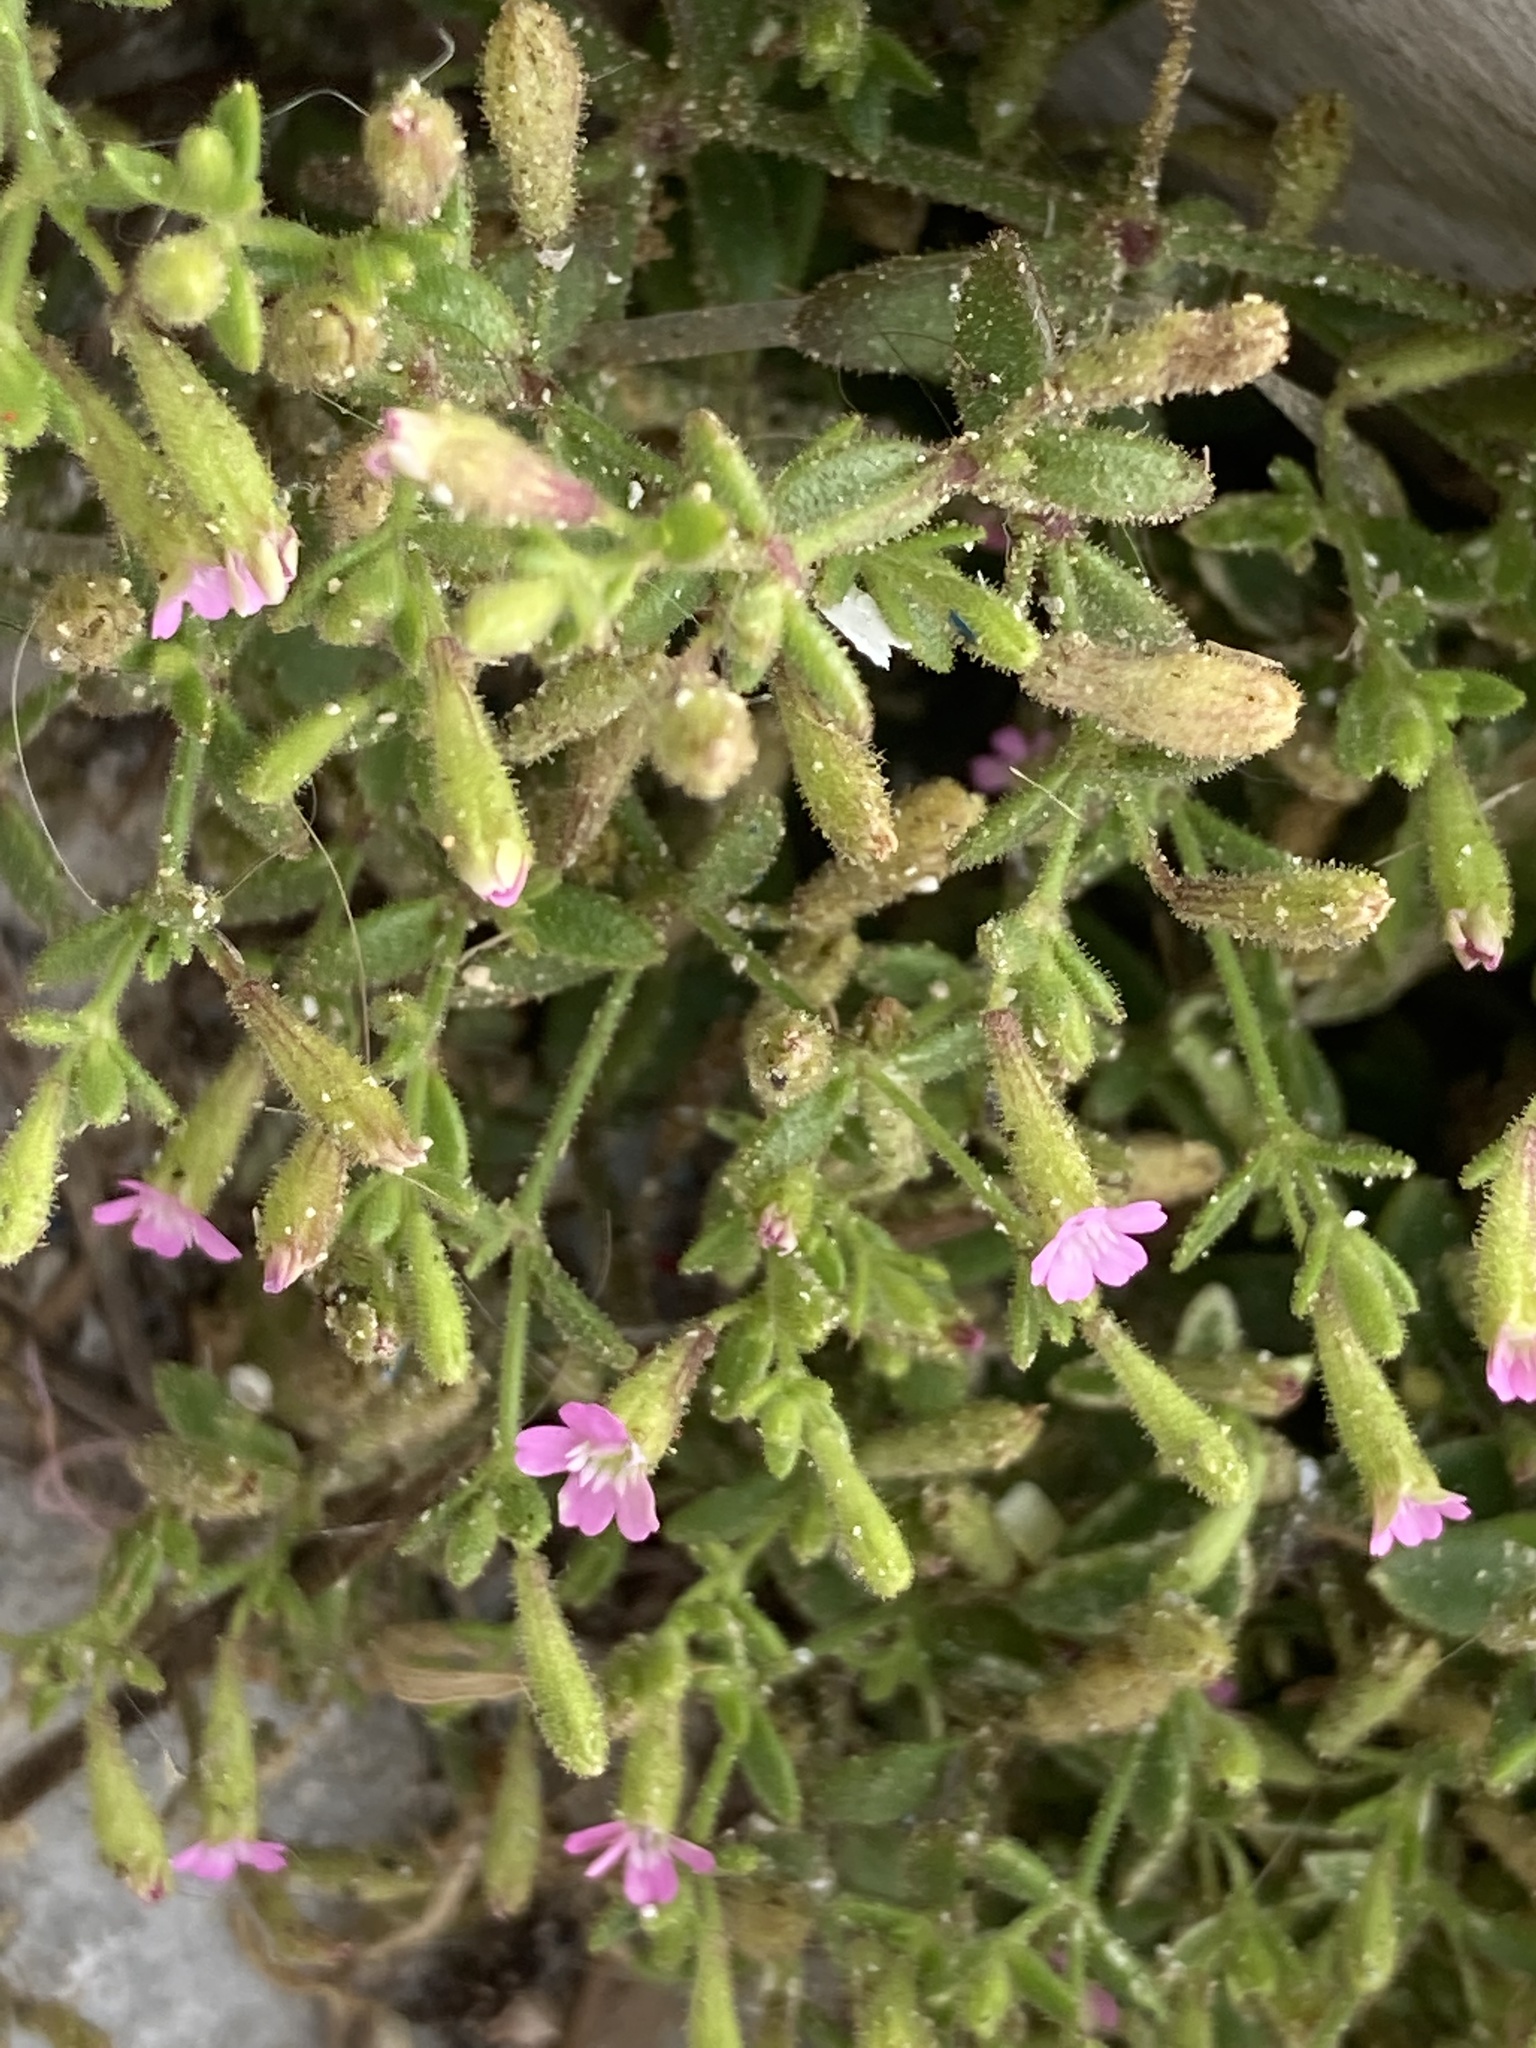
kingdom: Plantae
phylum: Tracheophyta
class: Magnoliopsida
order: Caryophyllales
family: Caryophyllaceae
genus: Silene
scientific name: Silene sedoides
